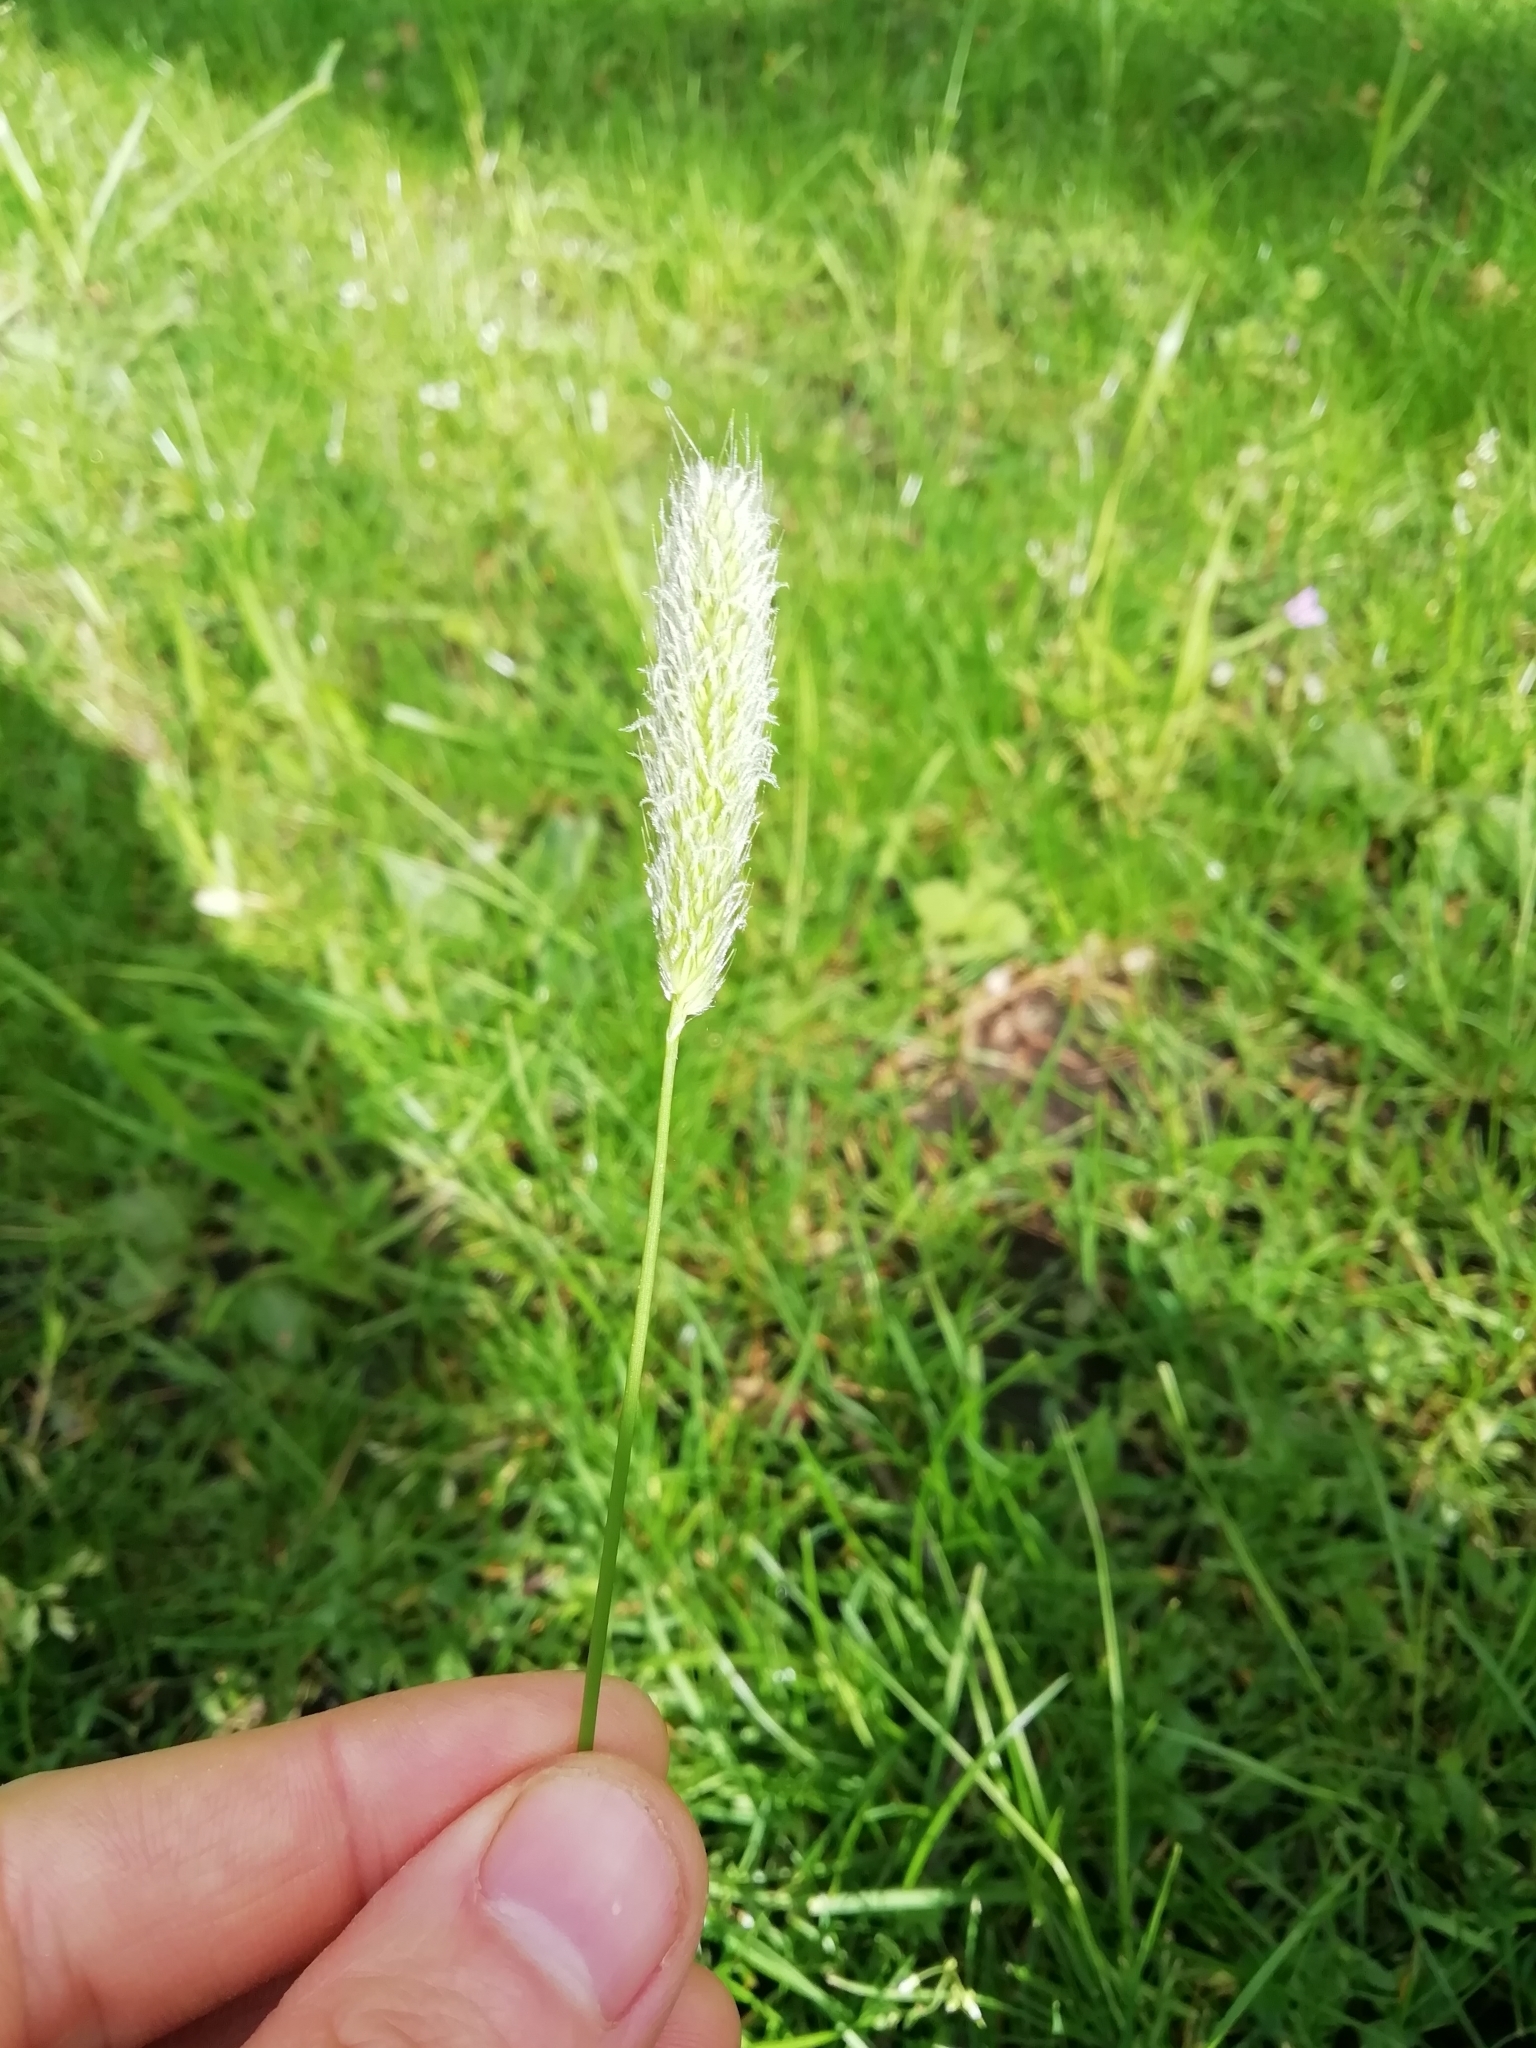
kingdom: Plantae
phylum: Tracheophyta
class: Liliopsida
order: Poales
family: Poaceae
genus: Alopecurus
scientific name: Alopecurus pratensis
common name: Meadow foxtail
